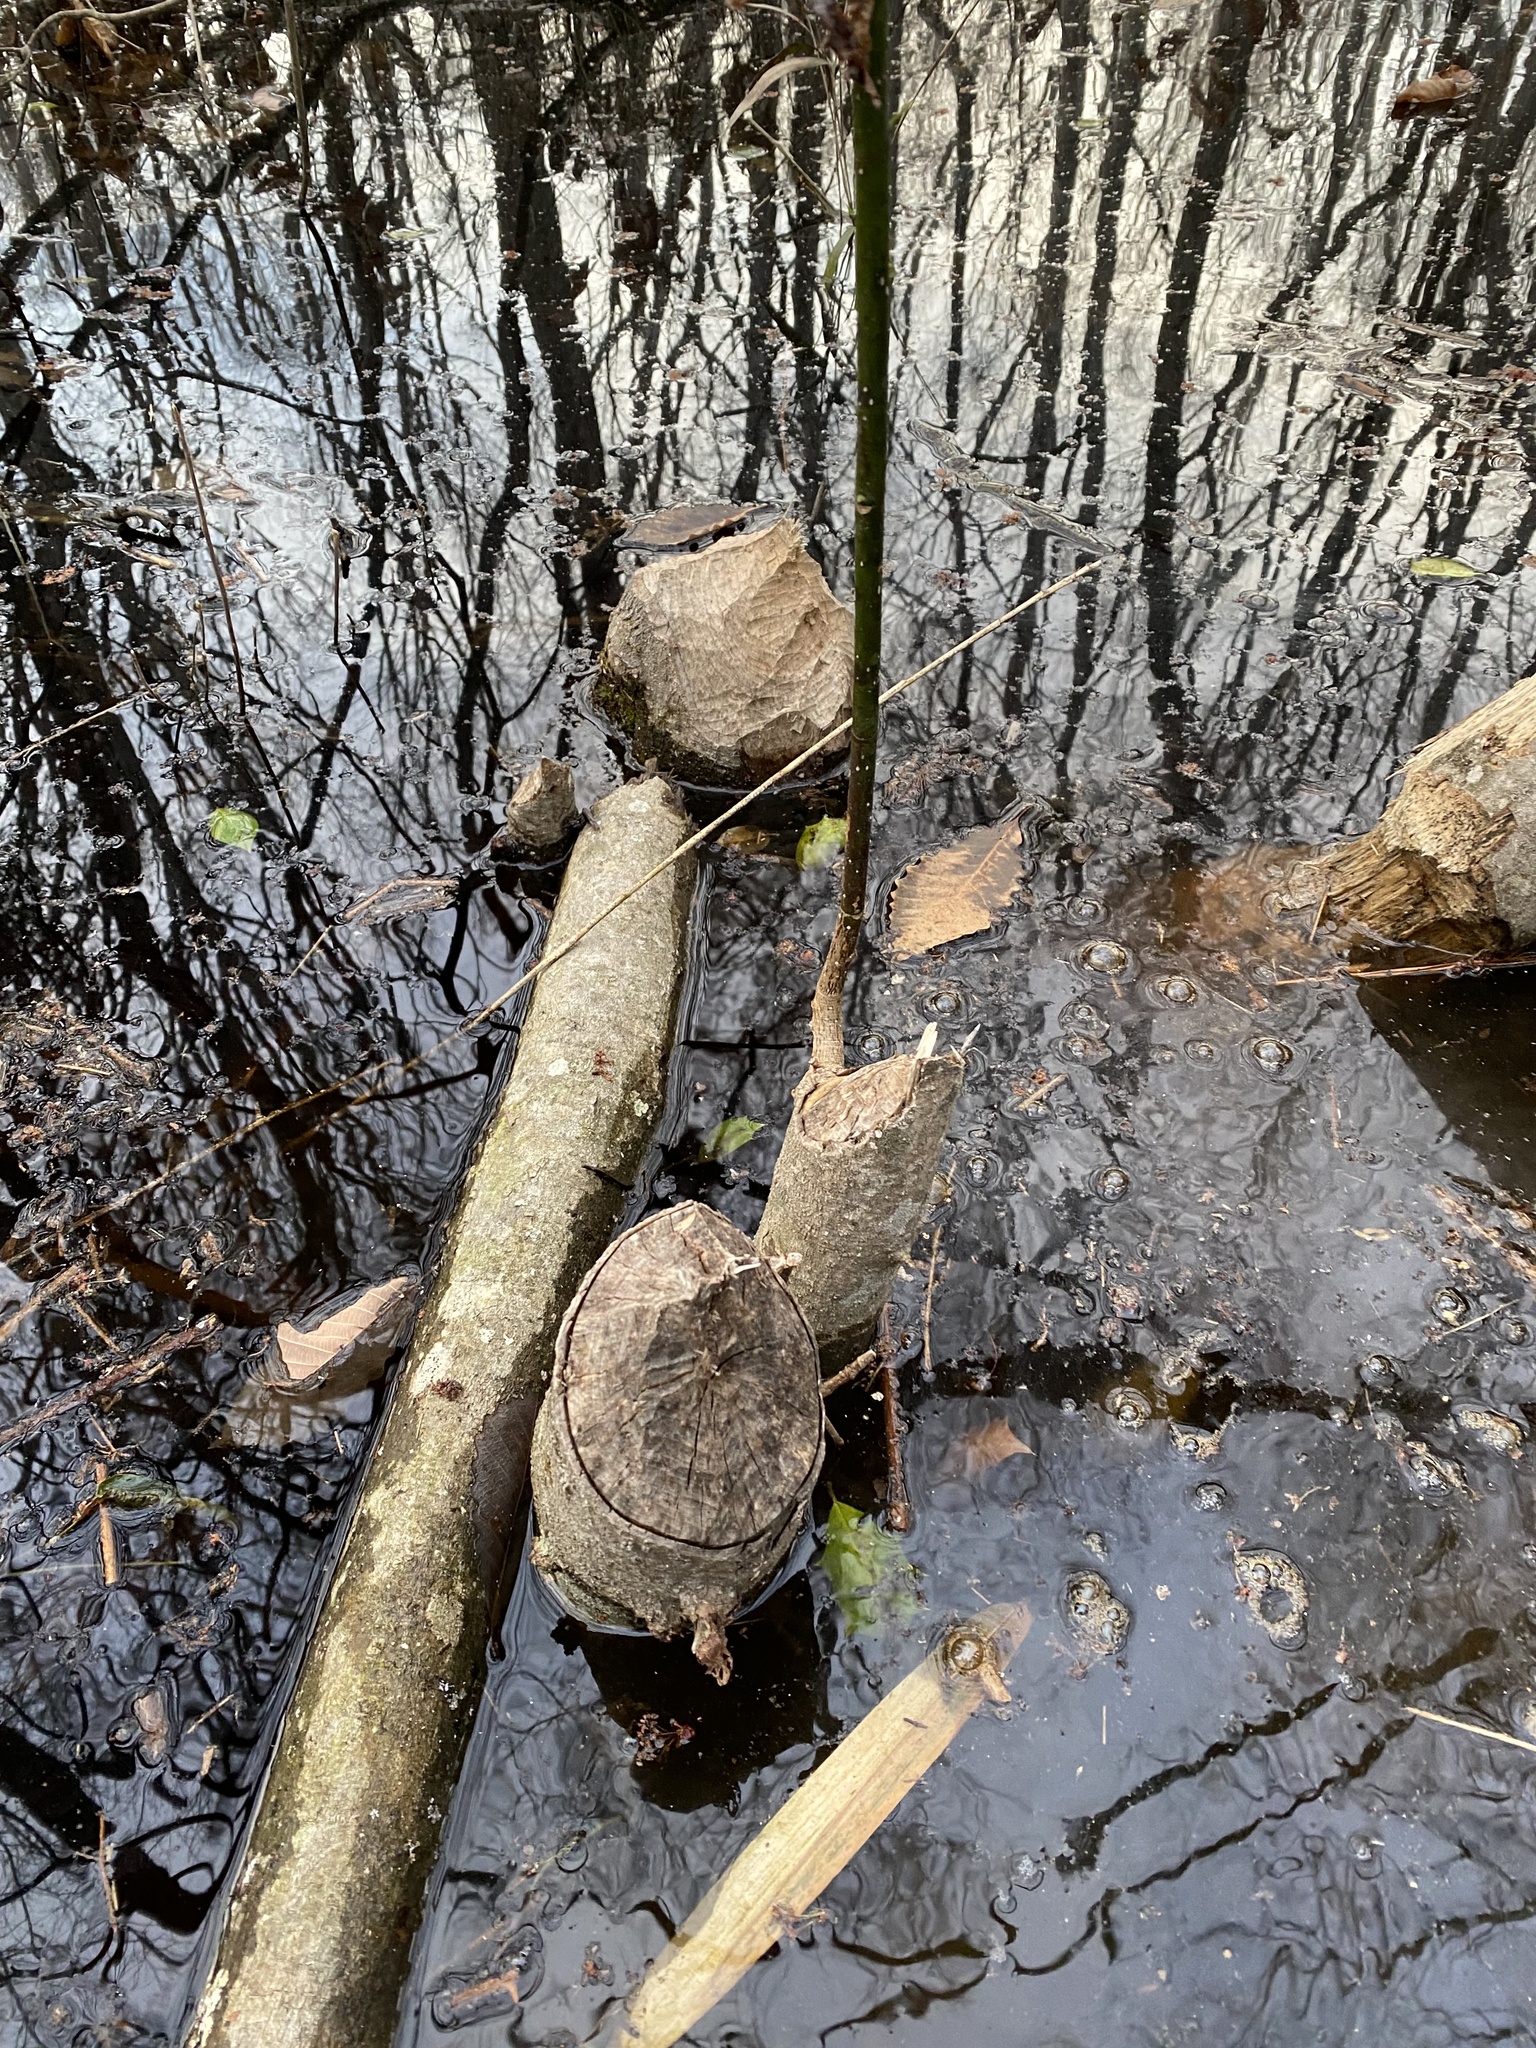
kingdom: Animalia
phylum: Chordata
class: Mammalia
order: Rodentia
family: Castoridae
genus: Castor
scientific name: Castor canadensis
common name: American beaver
